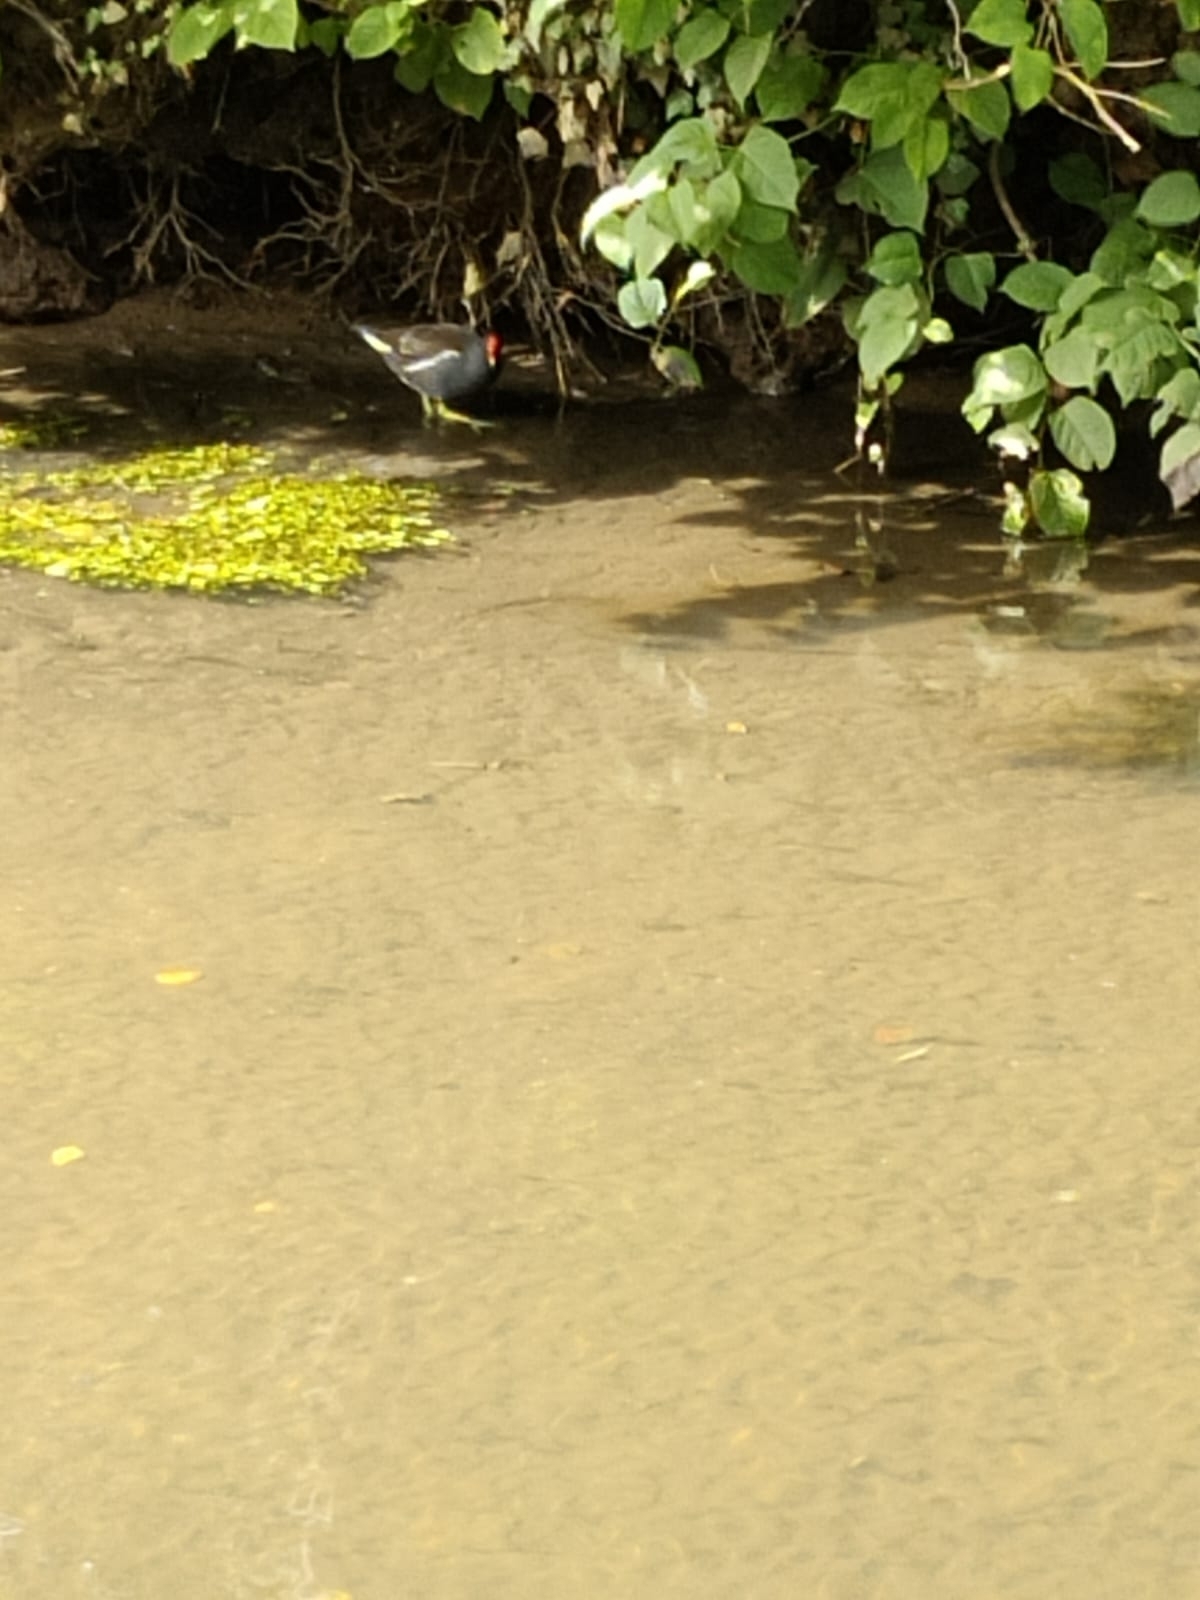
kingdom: Animalia
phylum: Chordata
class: Aves
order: Gruiformes
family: Rallidae
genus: Gallinula
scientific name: Gallinula chloropus
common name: Common moorhen
